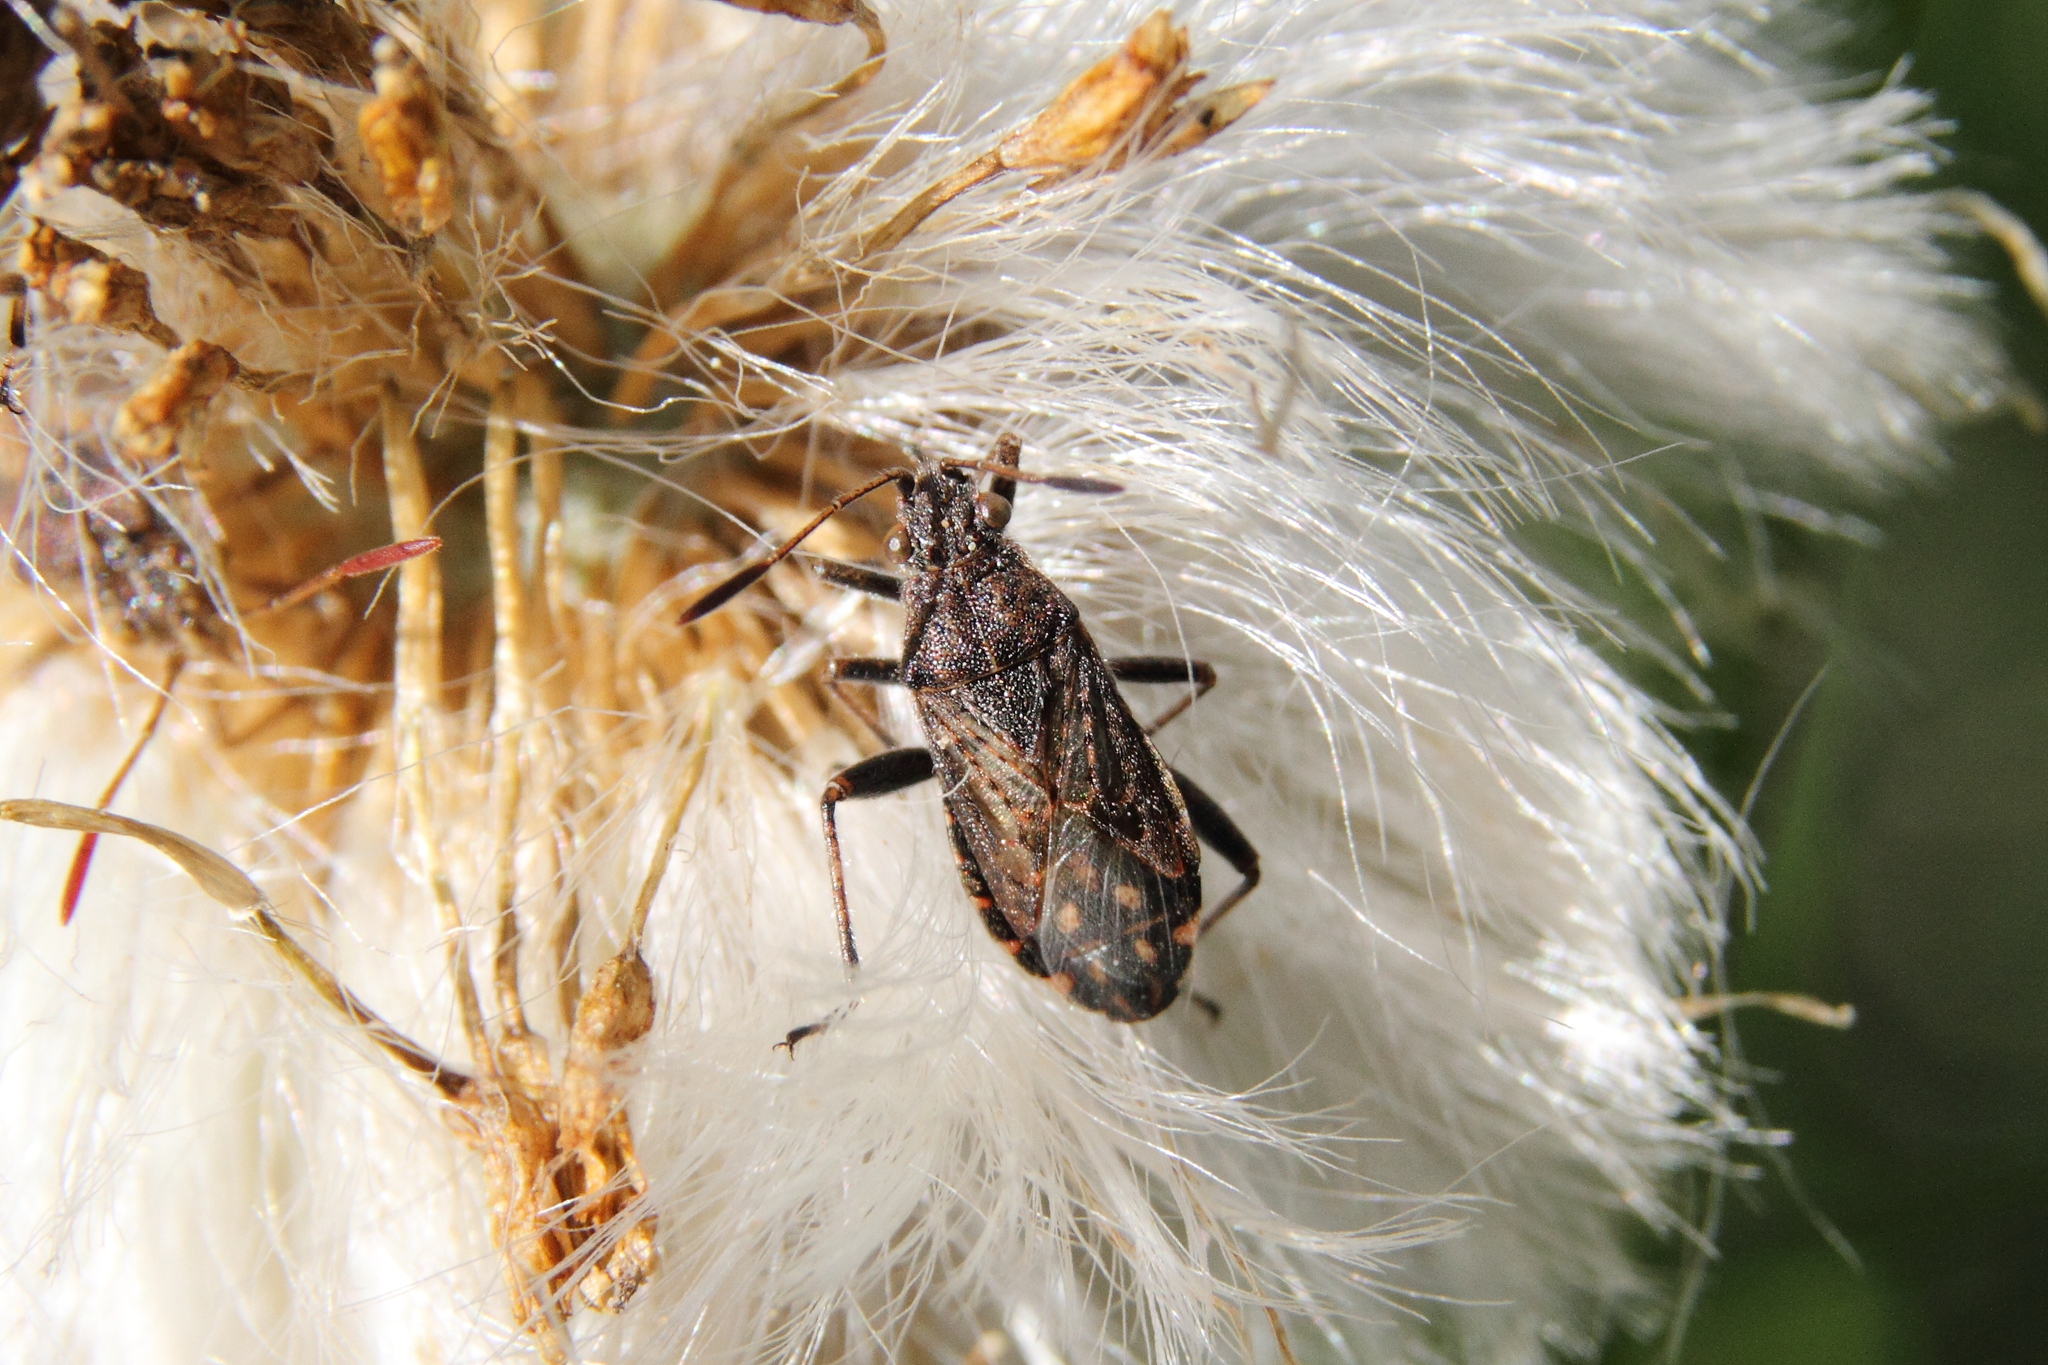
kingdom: Animalia
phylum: Arthropoda
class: Insecta
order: Hemiptera
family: Rhopalidae
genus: Stictopleurus
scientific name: Stictopleurus punctatonervosus
